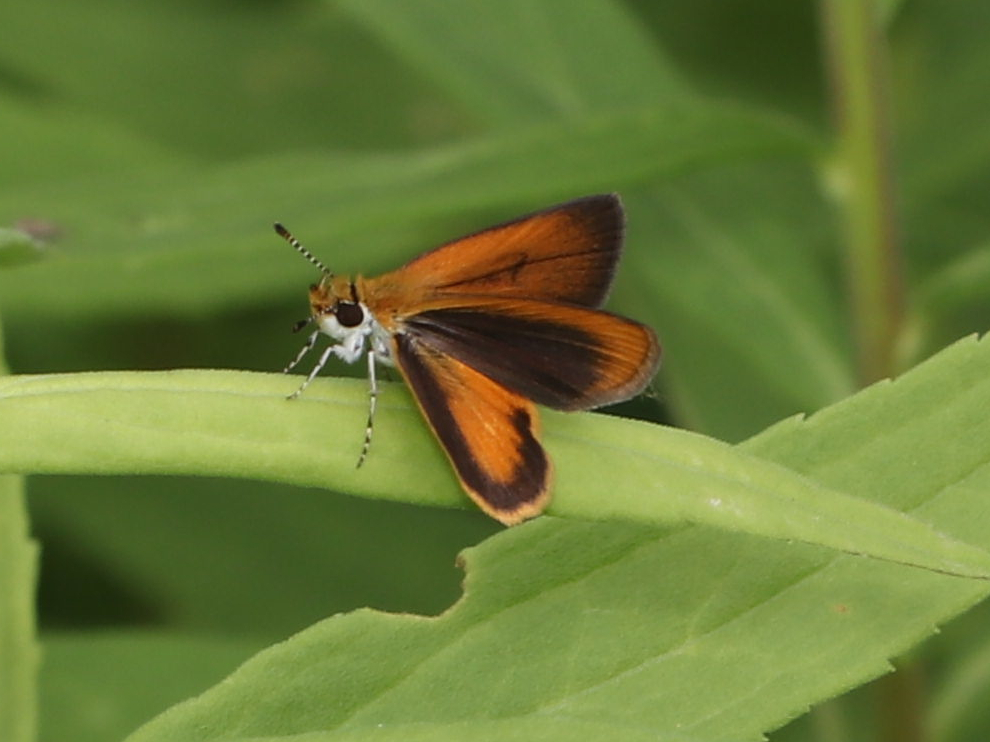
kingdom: Animalia
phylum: Arthropoda
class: Insecta
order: Lepidoptera
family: Hesperiidae
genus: Ancyloxypha
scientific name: Ancyloxypha numitor
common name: Least skipper
